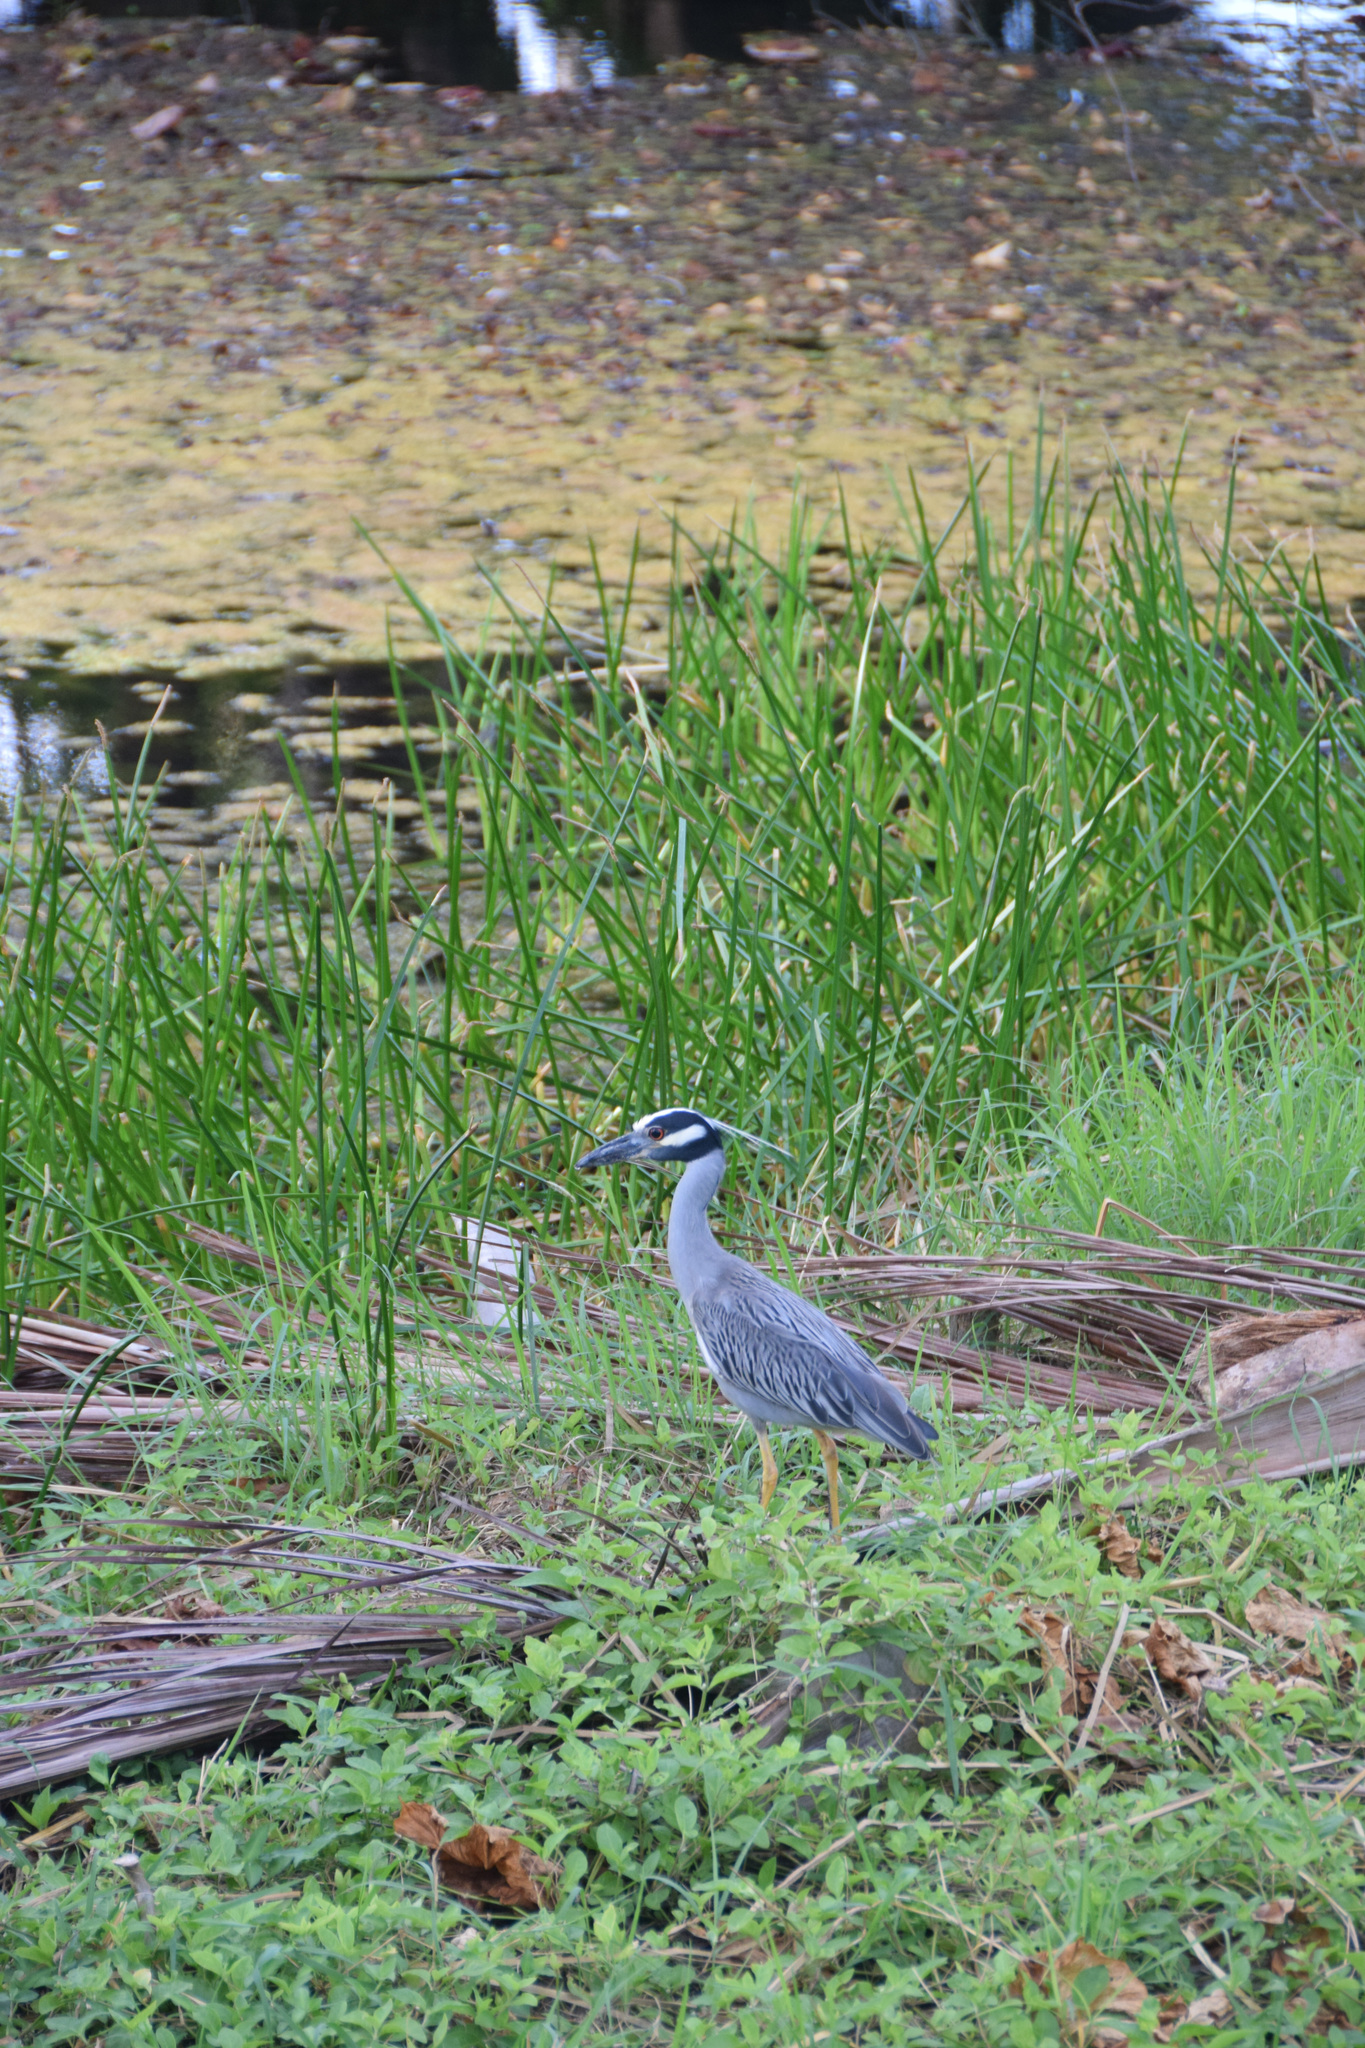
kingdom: Animalia
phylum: Chordata
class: Aves
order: Pelecaniformes
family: Ardeidae
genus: Nyctanassa
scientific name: Nyctanassa violacea
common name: Yellow-crowned night heron
